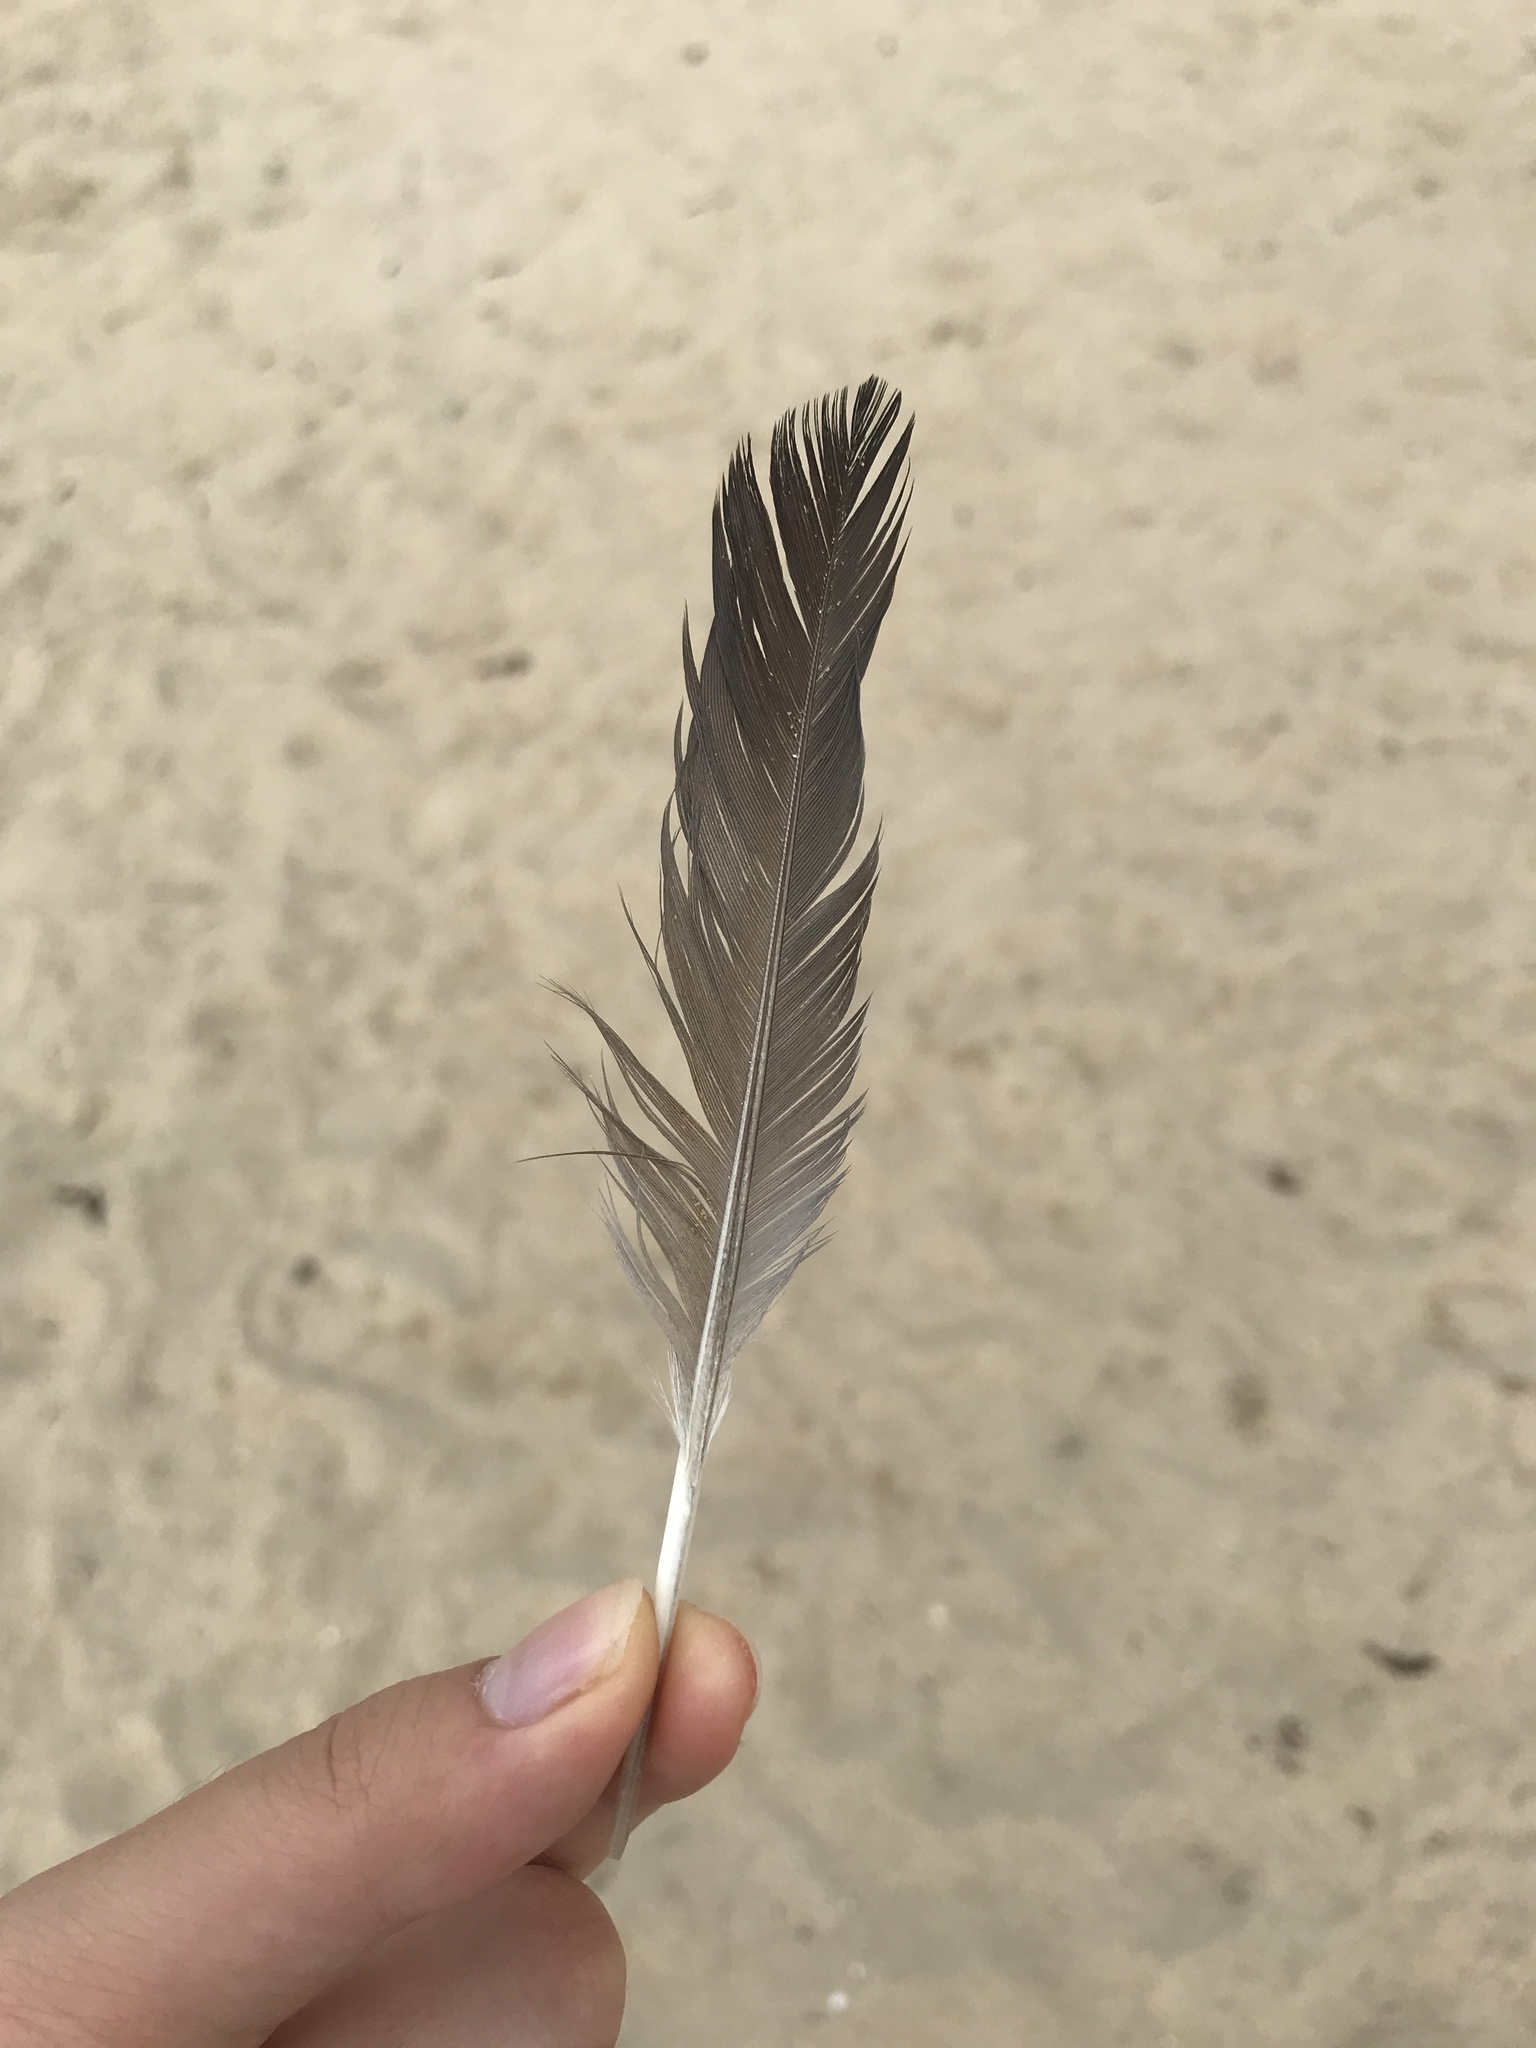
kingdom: Animalia
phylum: Chordata
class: Aves
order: Columbiformes
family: Columbidae
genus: Columba
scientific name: Columba livia
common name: Rock pigeon
